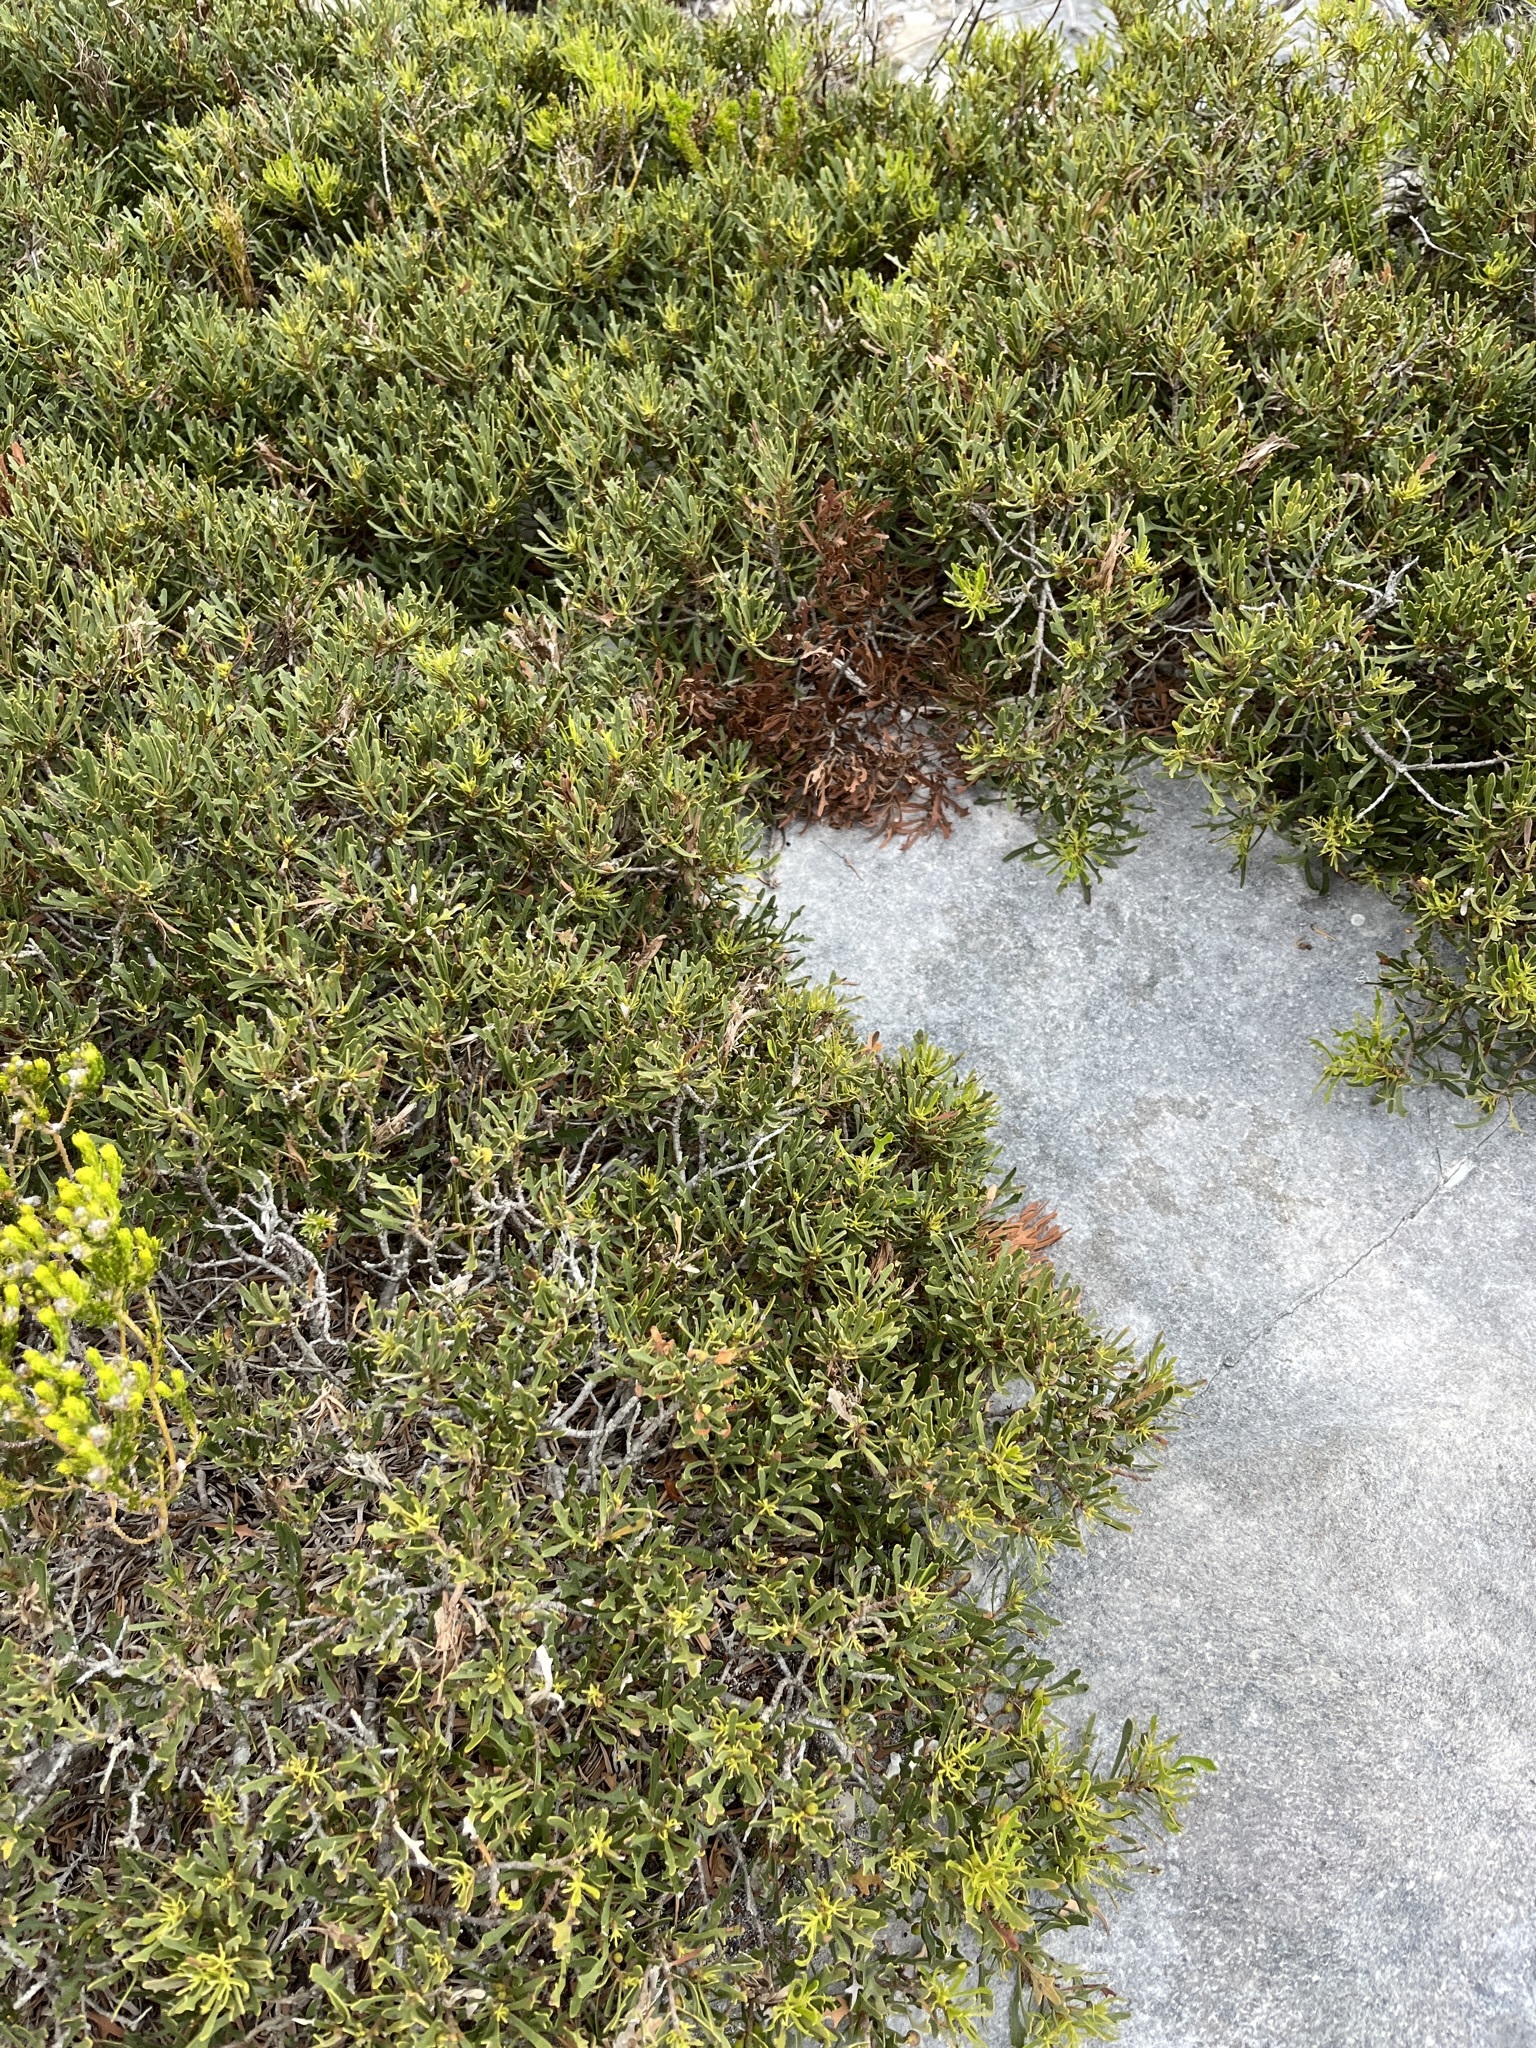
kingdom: Plantae
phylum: Tracheophyta
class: Magnoliopsida
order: Fagales
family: Myricaceae
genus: Morella
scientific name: Morella quercifolia
